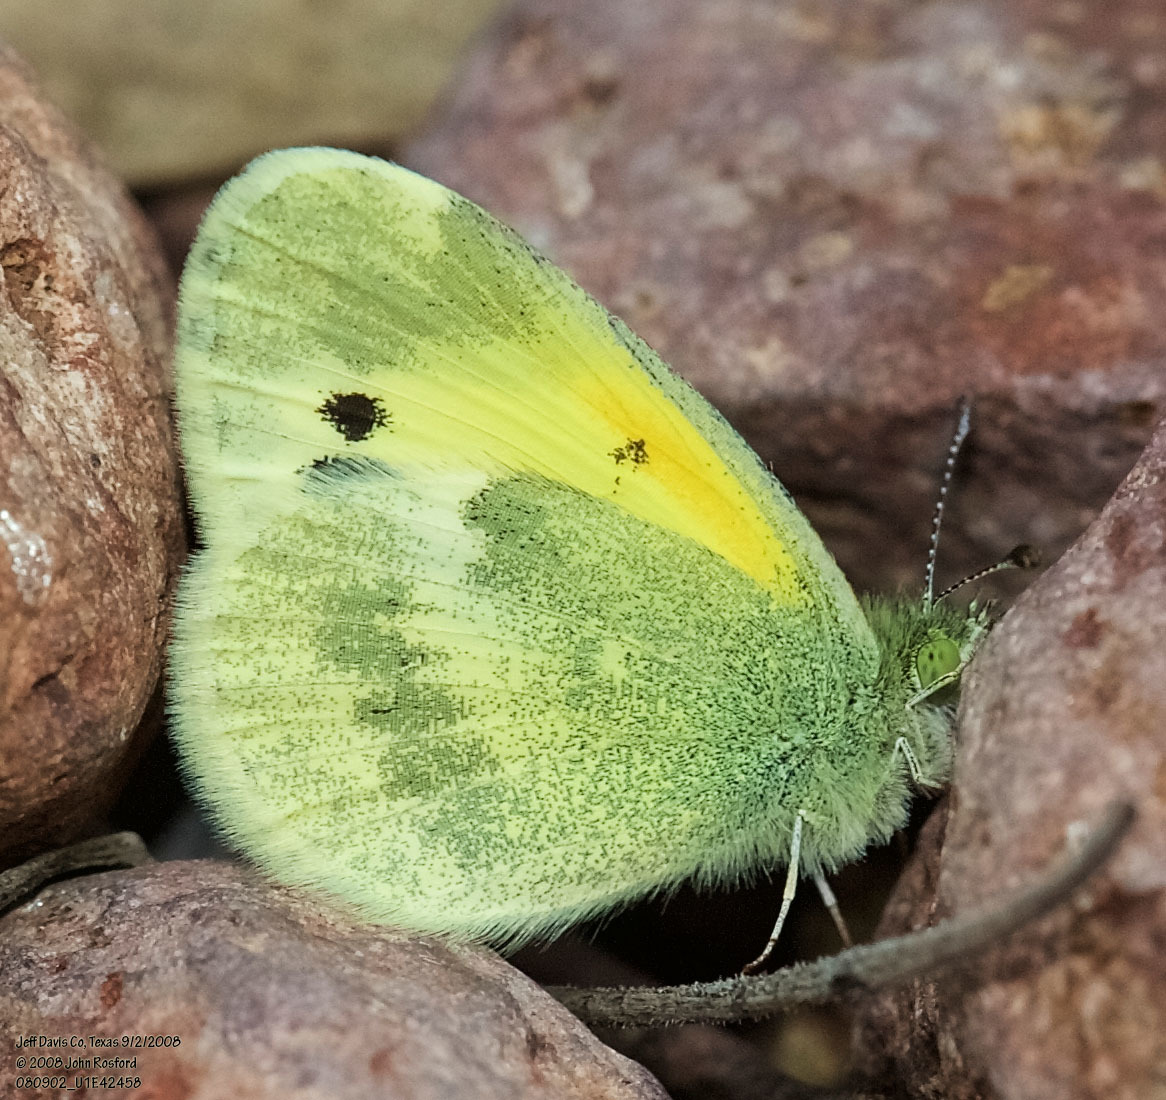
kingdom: Animalia
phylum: Arthropoda
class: Insecta
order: Lepidoptera
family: Pieridae
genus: Nathalis
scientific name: Nathalis iole
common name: Dainty sulphur
